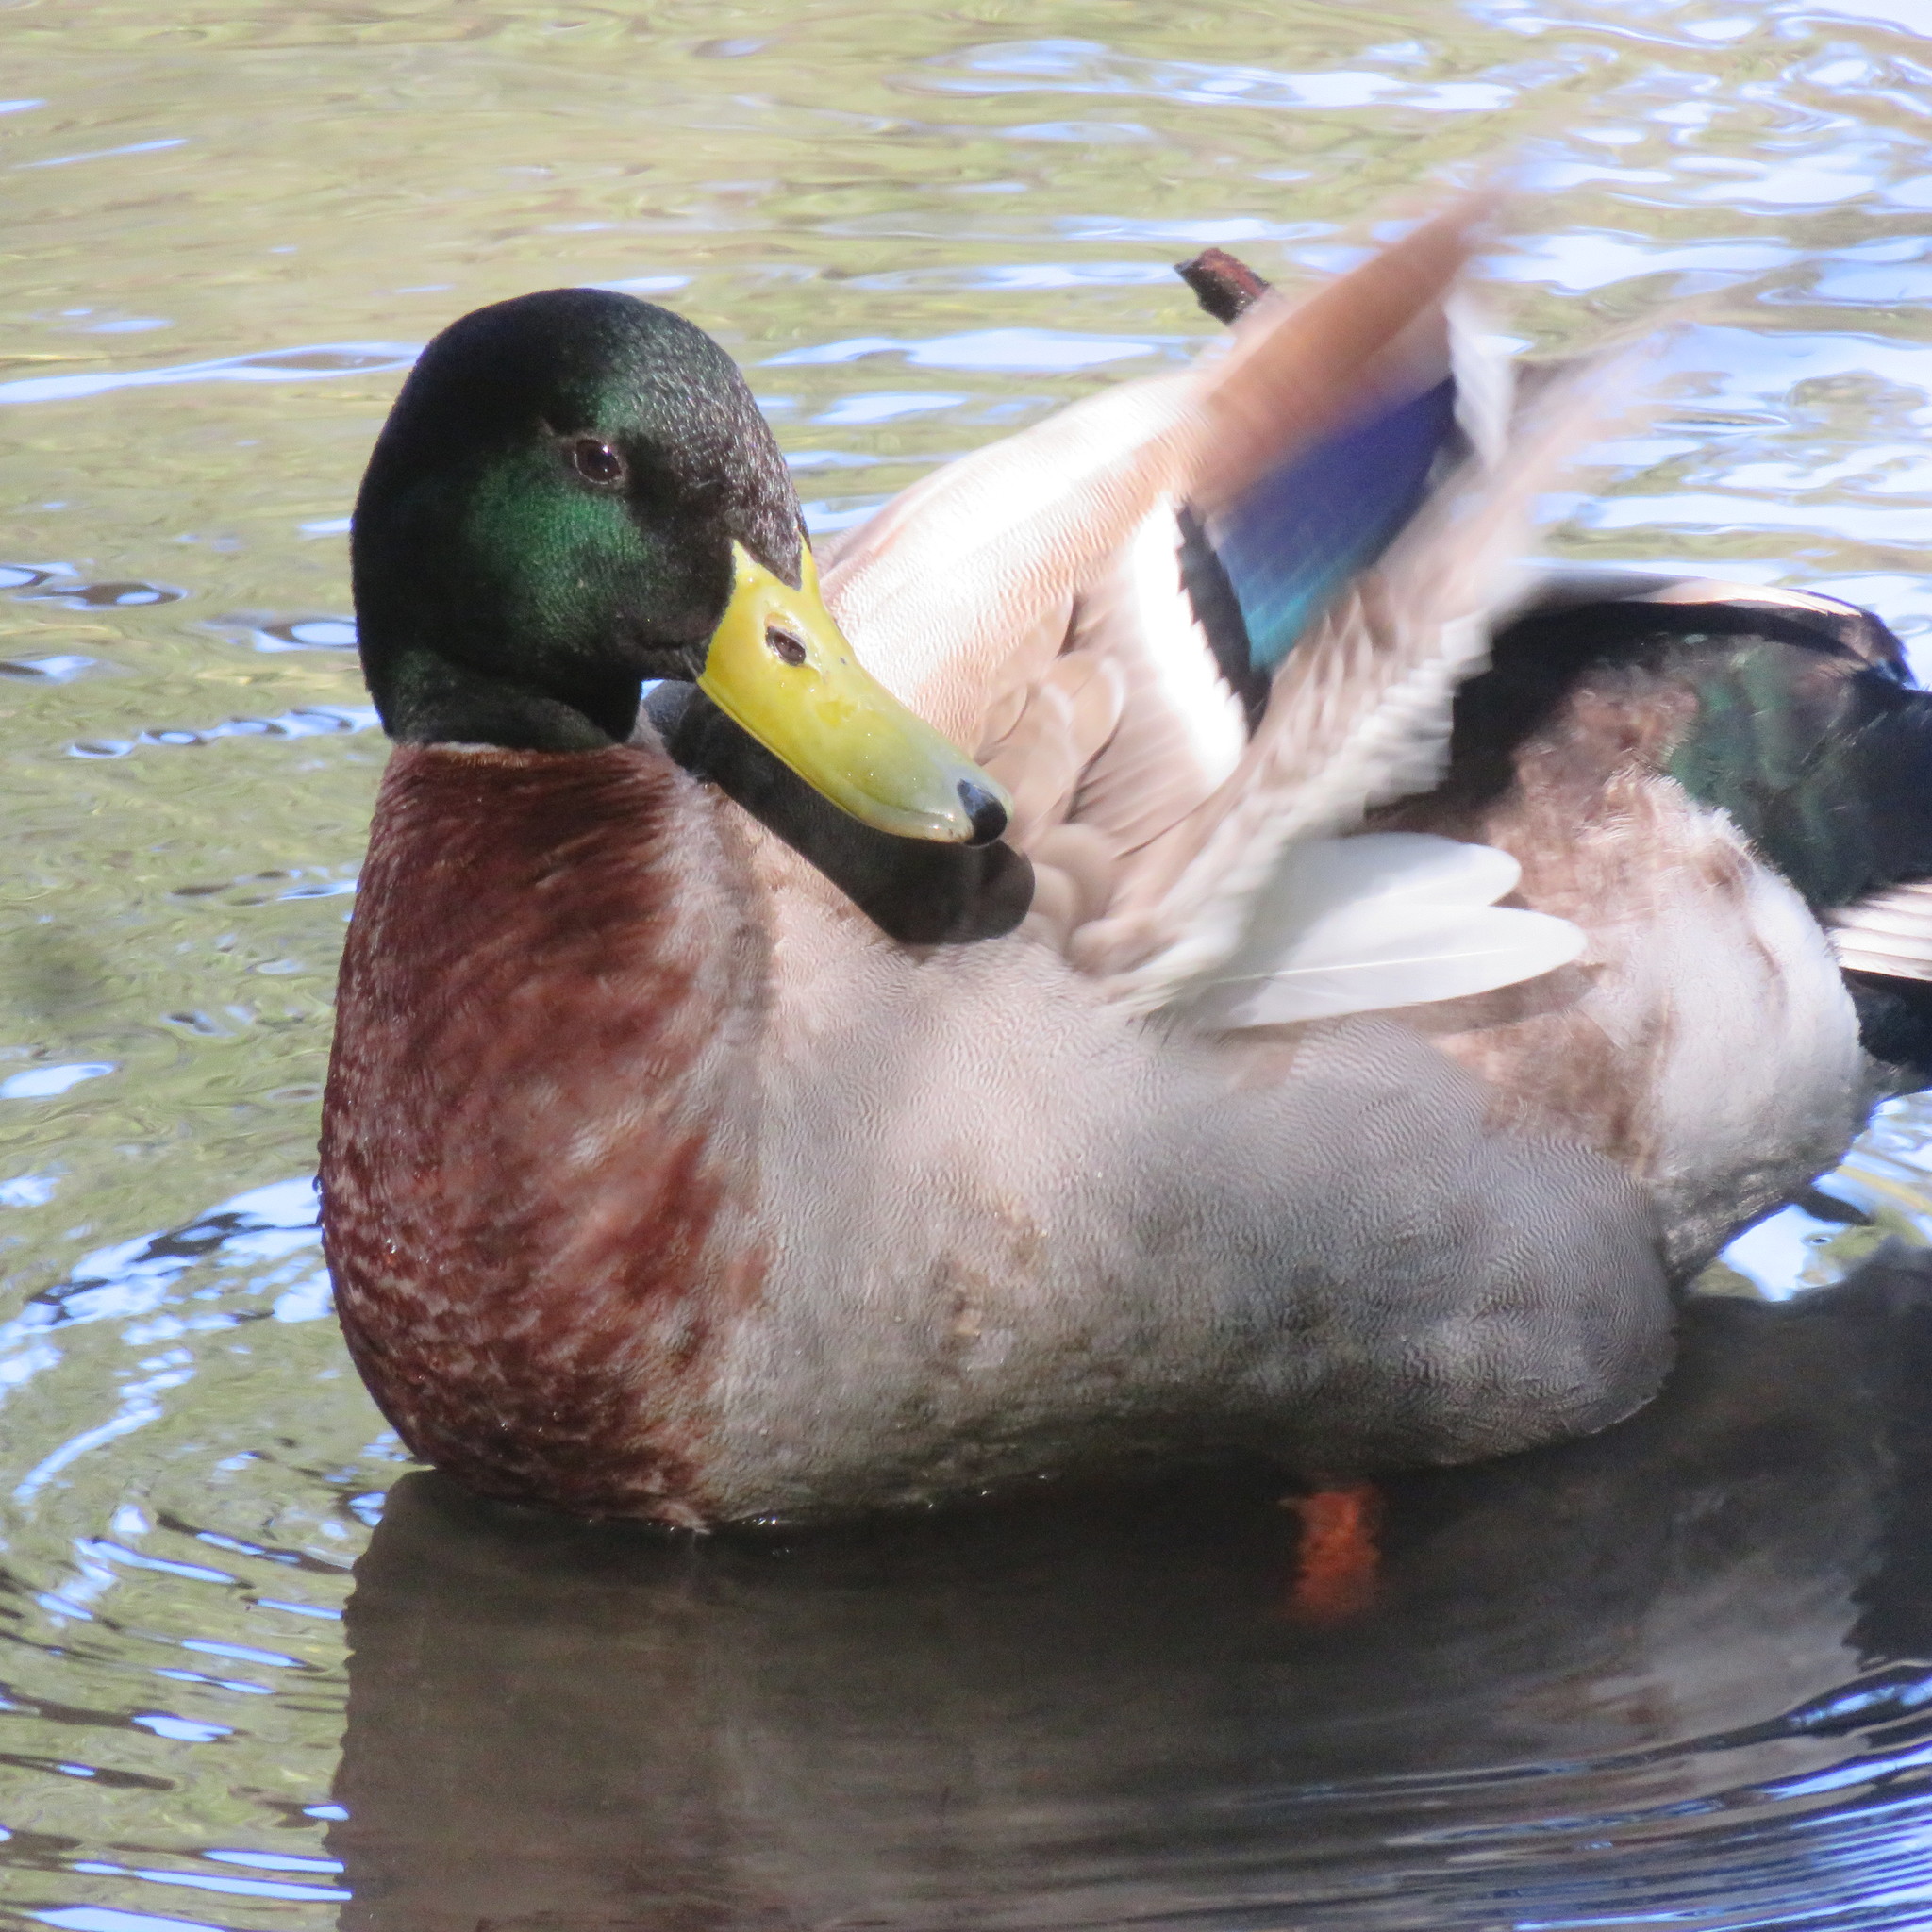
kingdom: Animalia
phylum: Chordata
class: Aves
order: Anseriformes
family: Anatidae
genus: Anas
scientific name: Anas platyrhynchos
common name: Mallard
